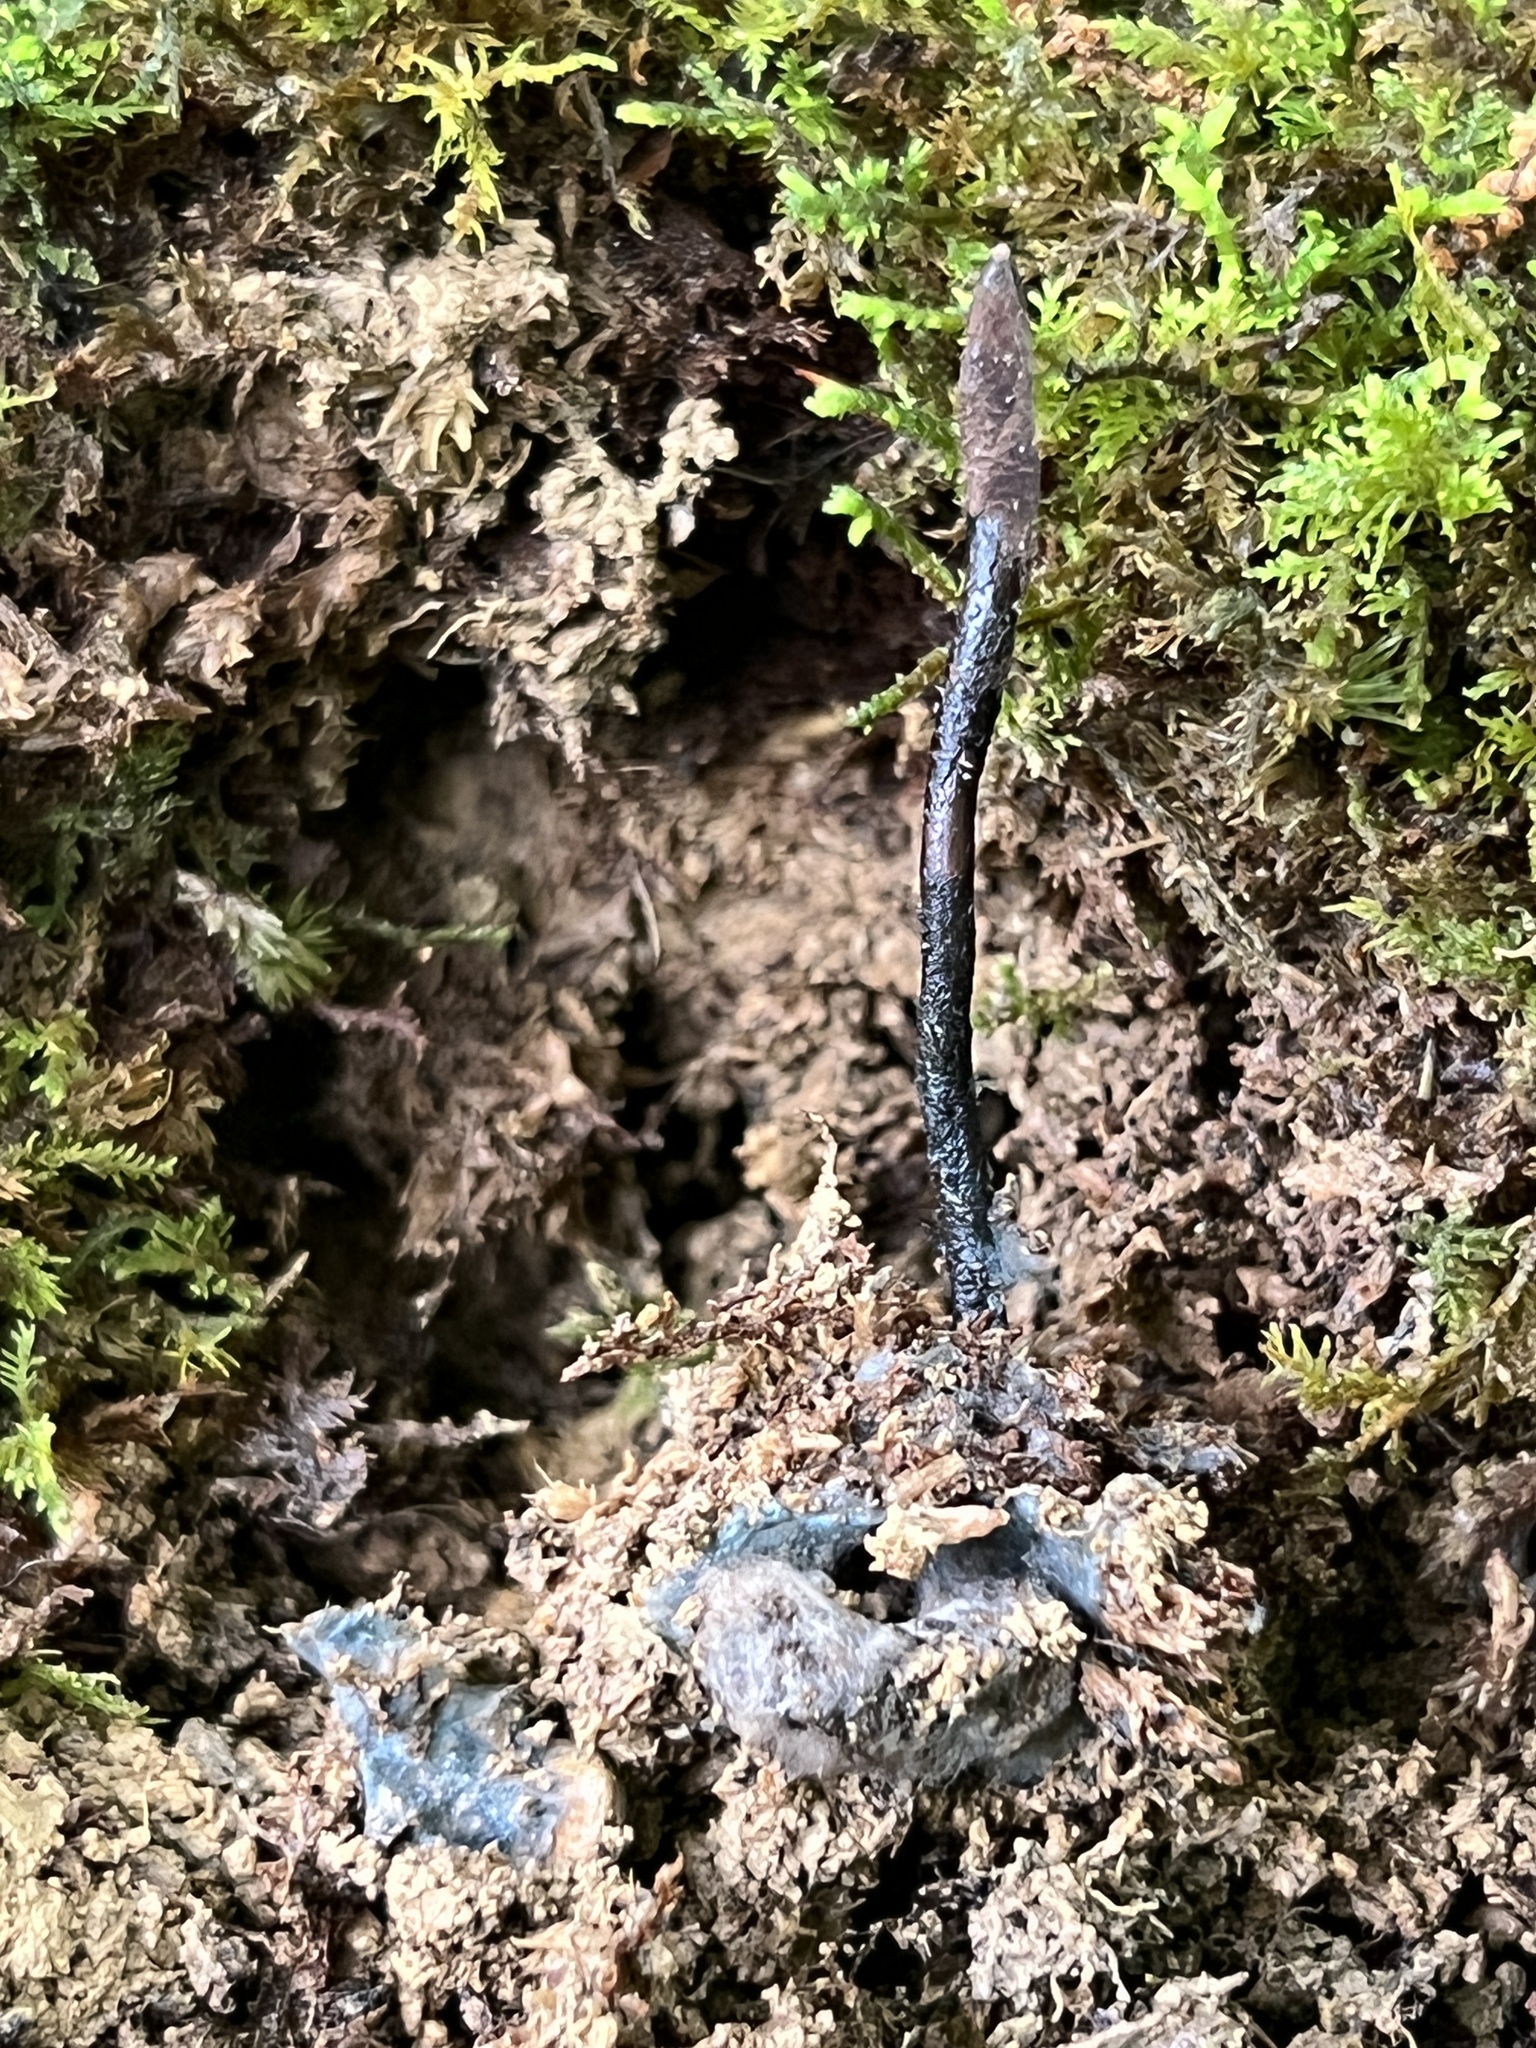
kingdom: Fungi
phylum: Ascomycota
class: Sordariomycetes
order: Hypocreales
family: Ophiocordycipitaceae
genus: Ophiocordyceps
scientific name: Ophiocordyceps ravenelii
